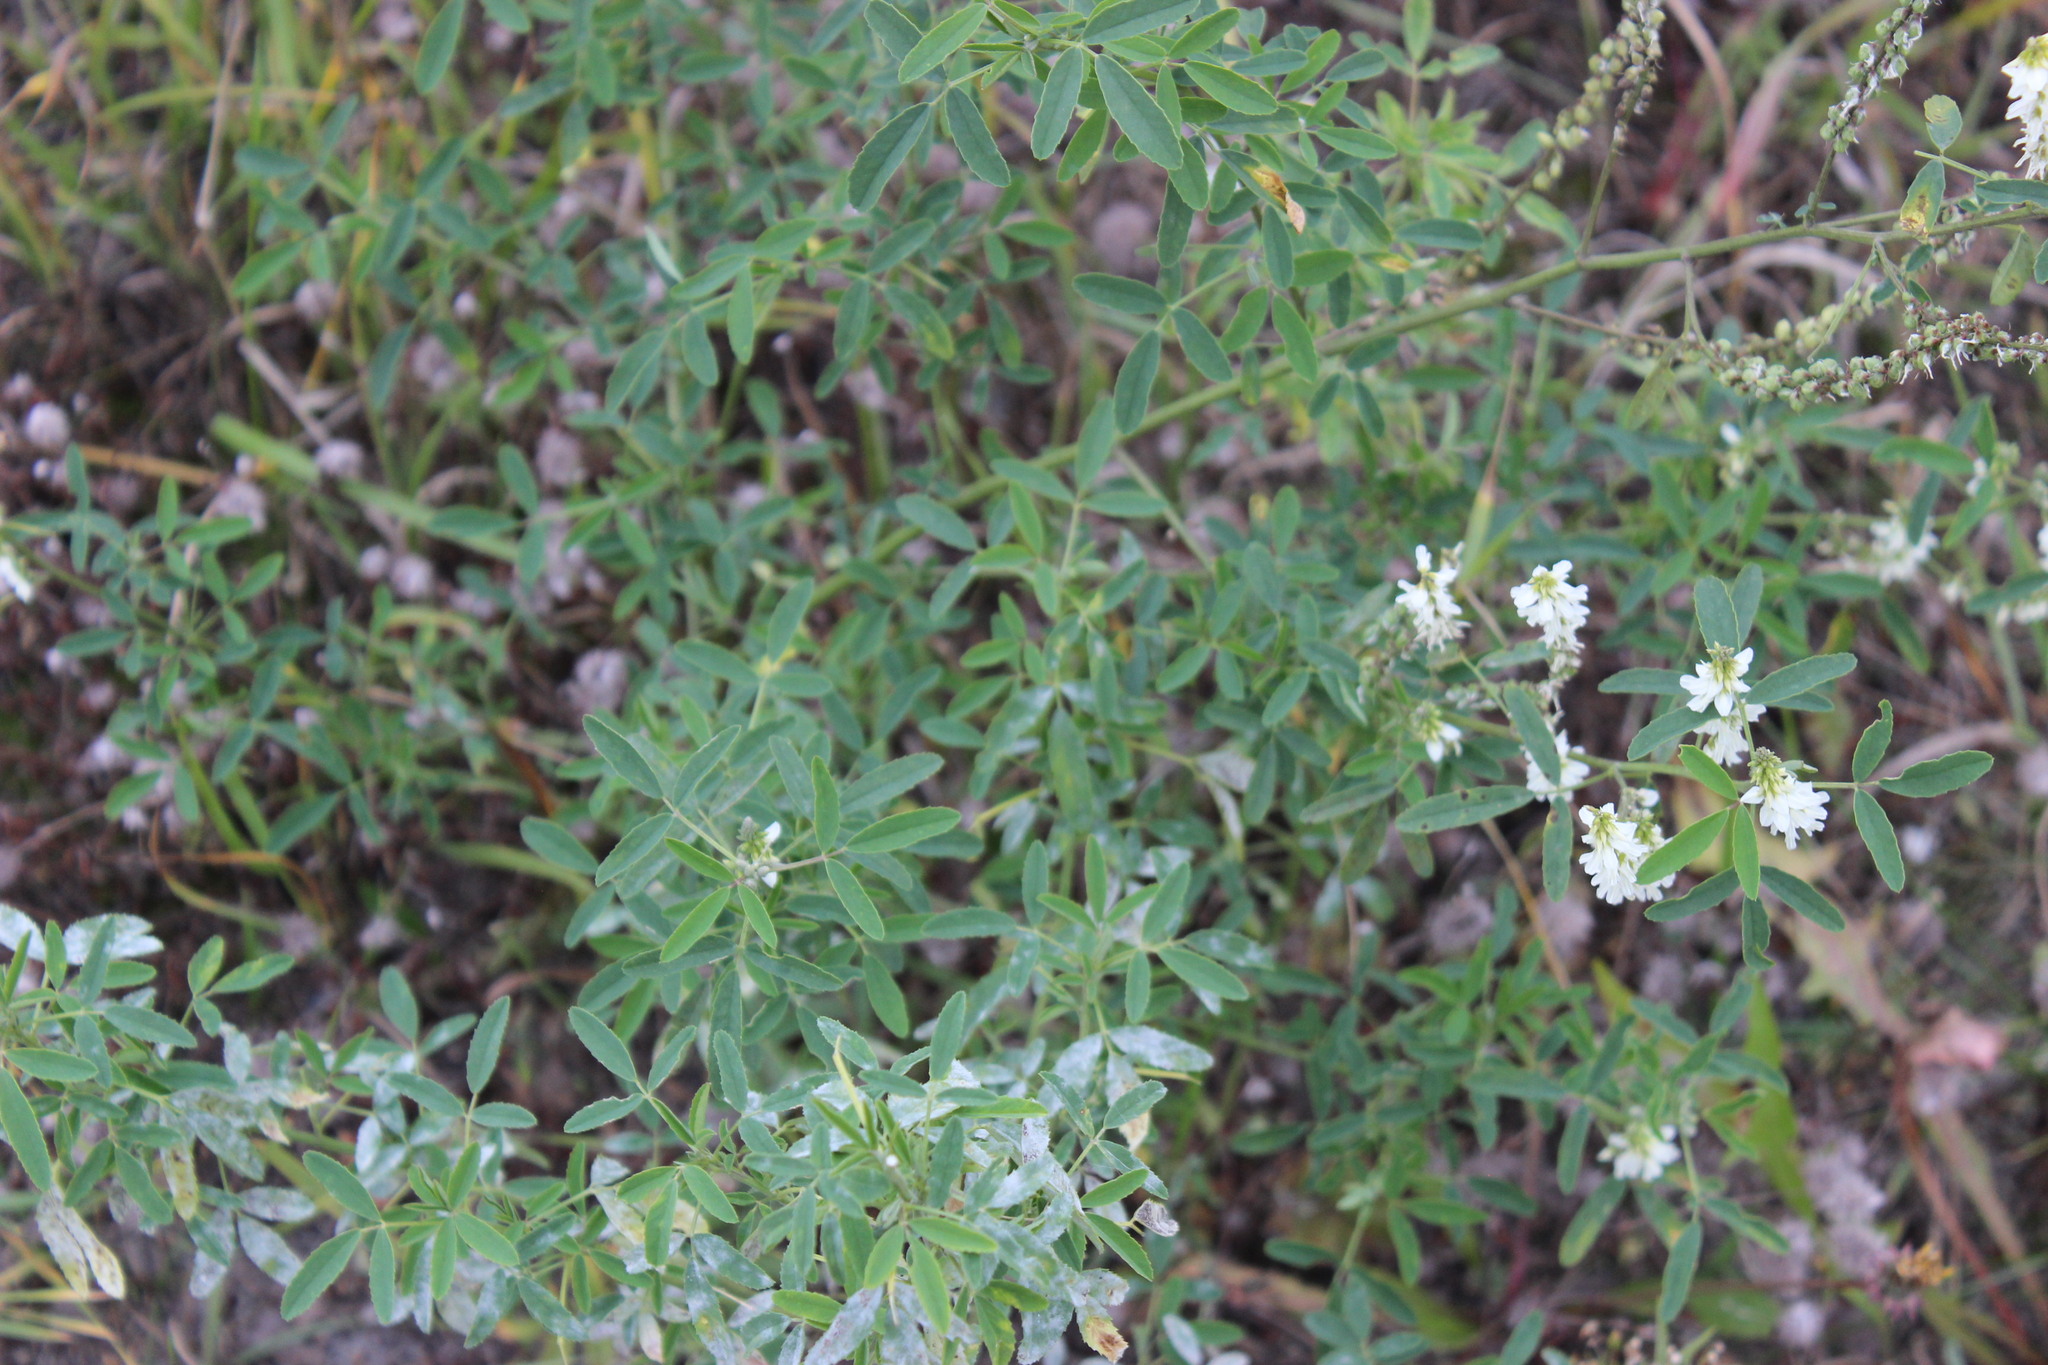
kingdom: Plantae
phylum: Tracheophyta
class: Magnoliopsida
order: Fabales
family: Fabaceae
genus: Melilotus
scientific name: Melilotus albus
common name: White melilot
